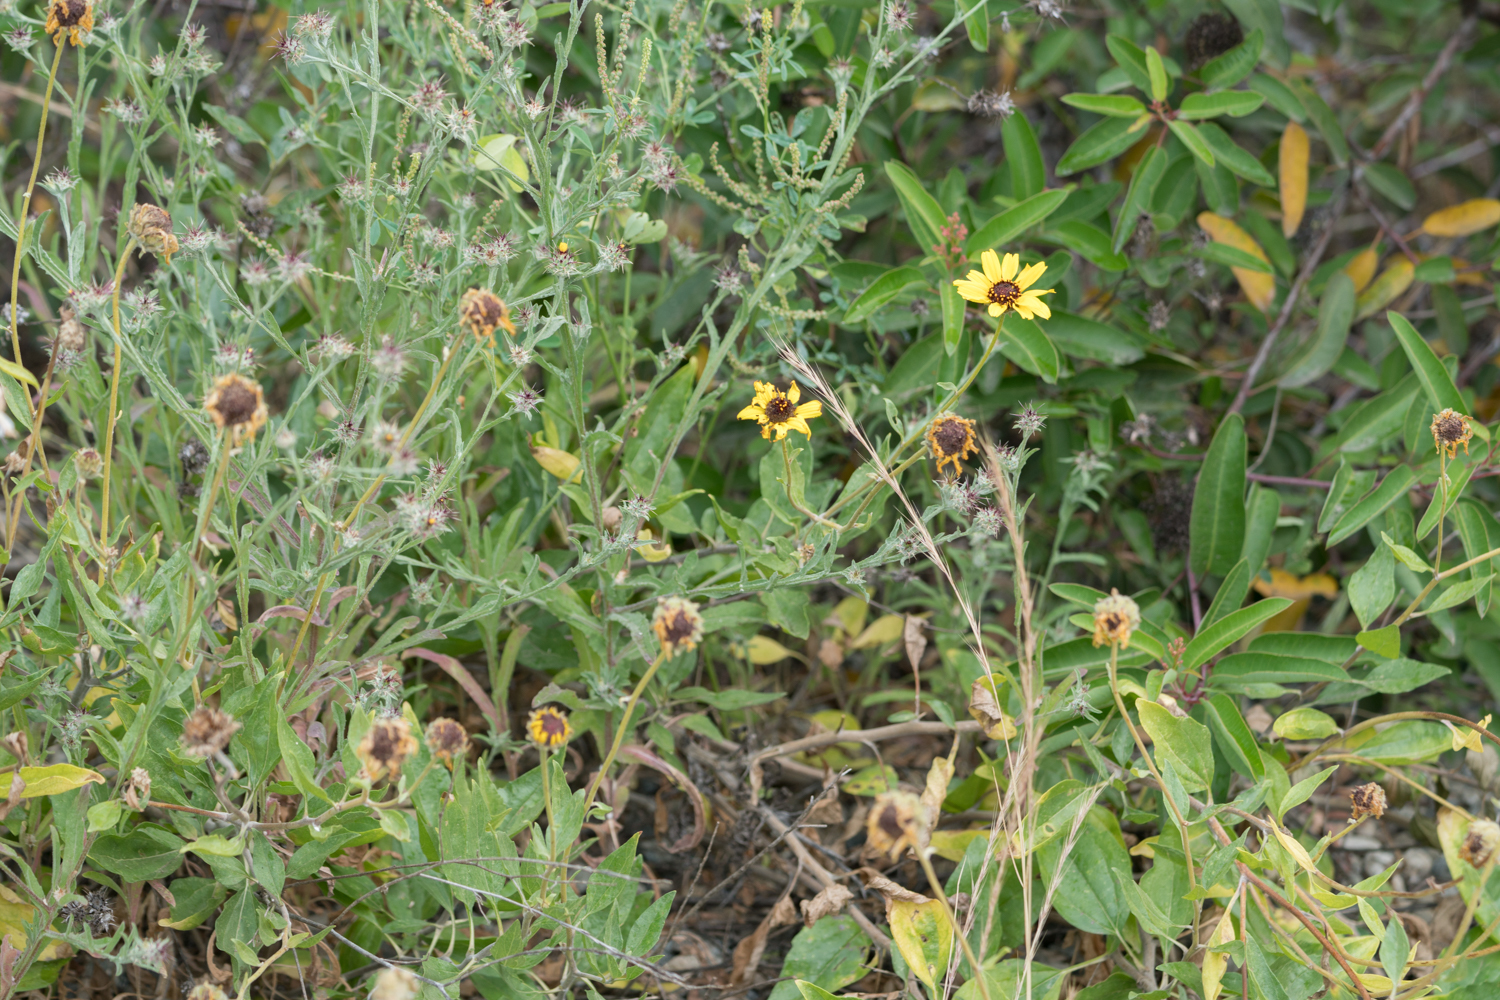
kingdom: Plantae
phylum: Tracheophyta
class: Magnoliopsida
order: Asterales
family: Asteraceae
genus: Encelia
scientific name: Encelia californica
